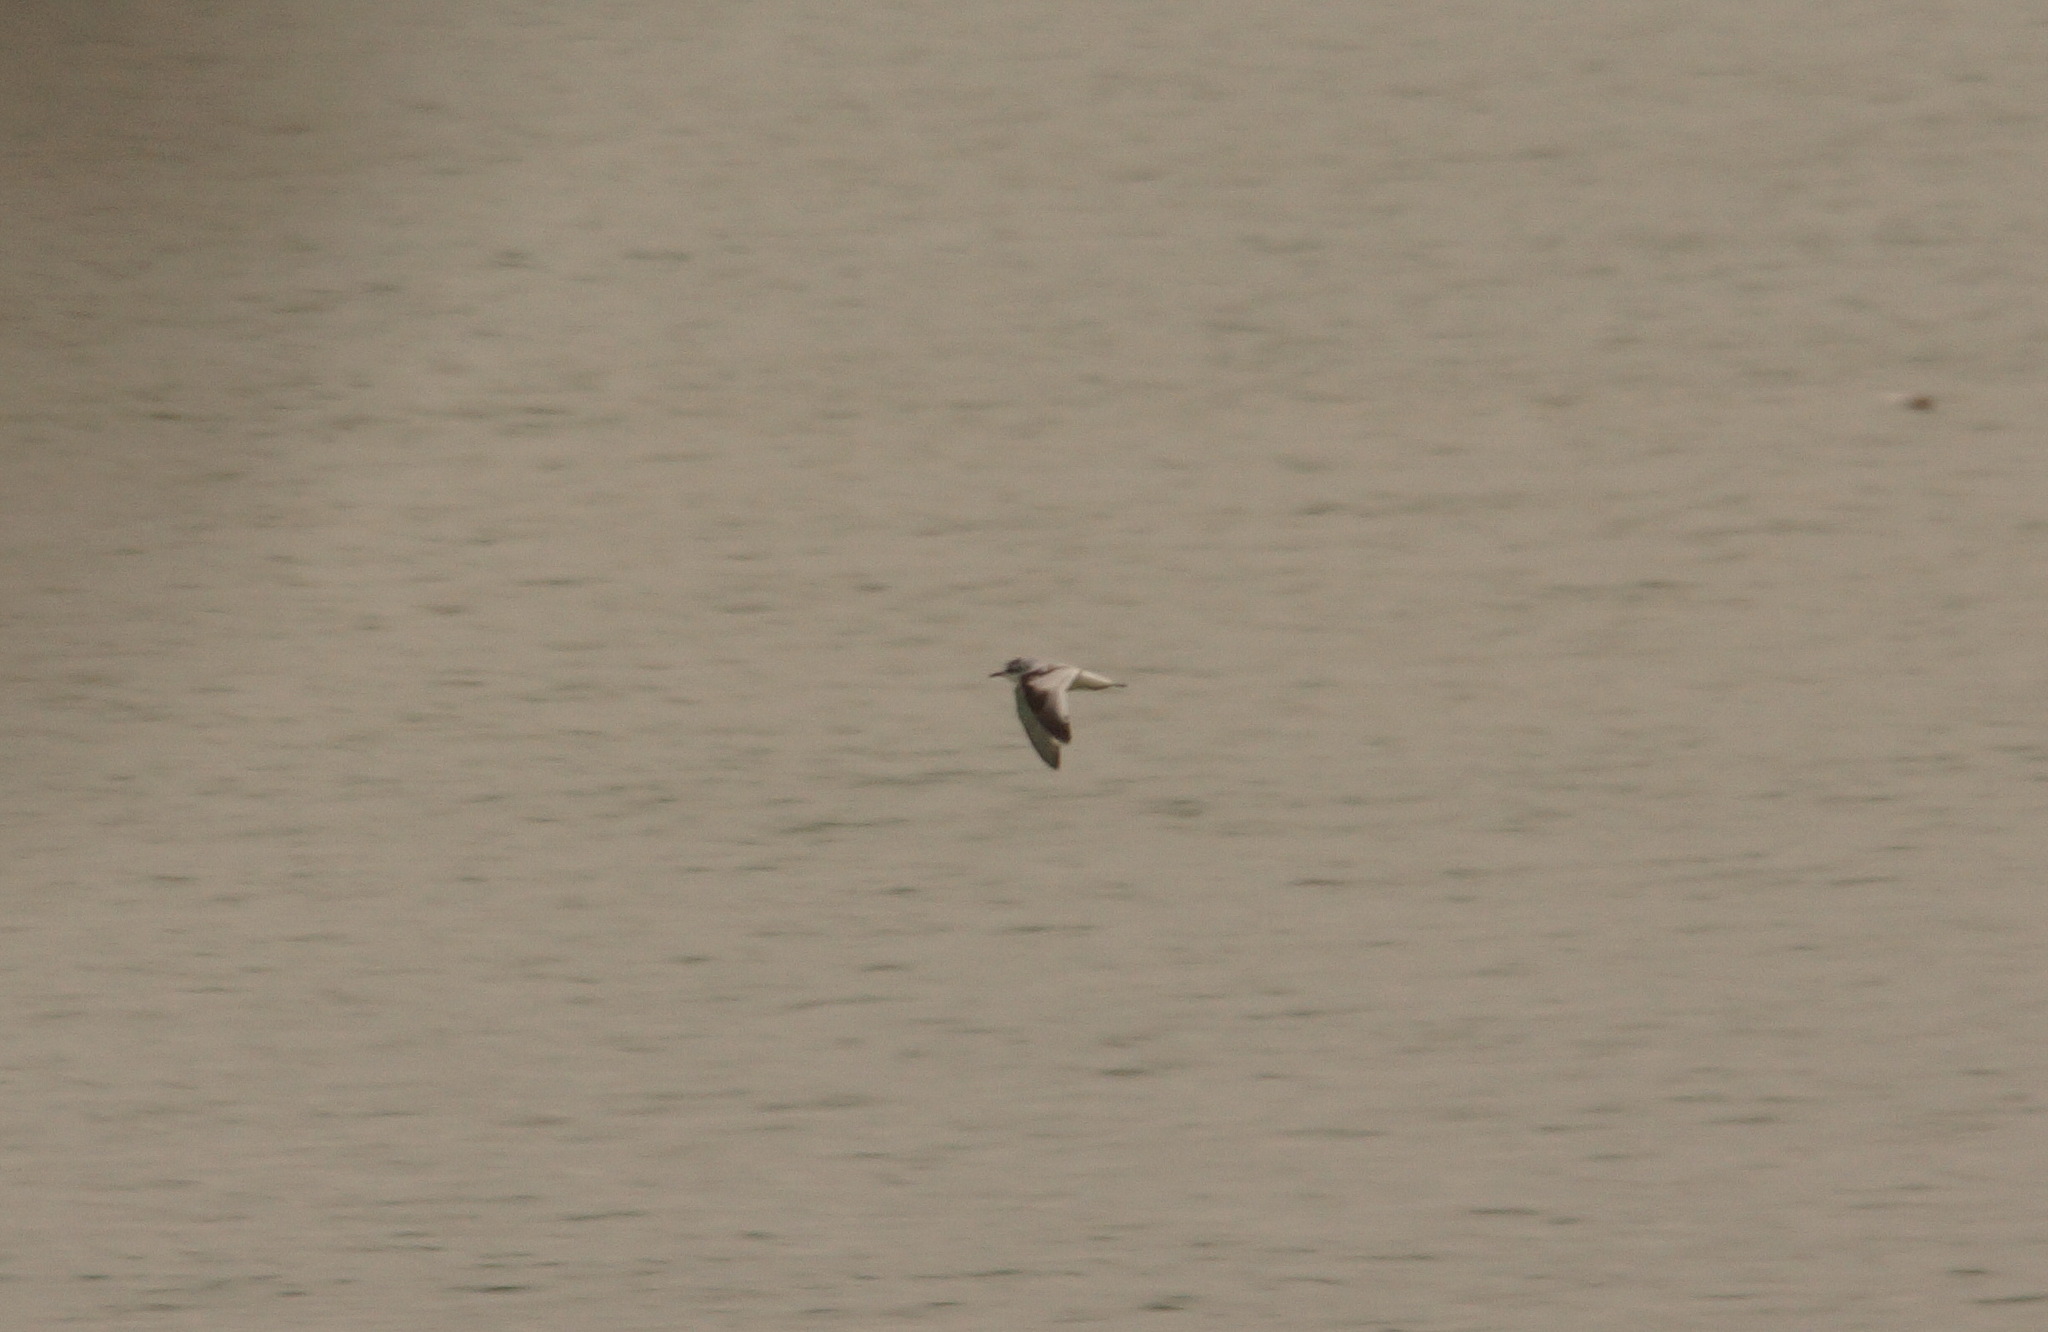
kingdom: Animalia
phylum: Chordata
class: Aves
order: Charadriiformes
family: Laridae
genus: Hydrocoloeus
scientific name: Hydrocoloeus minutus
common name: Little gull
